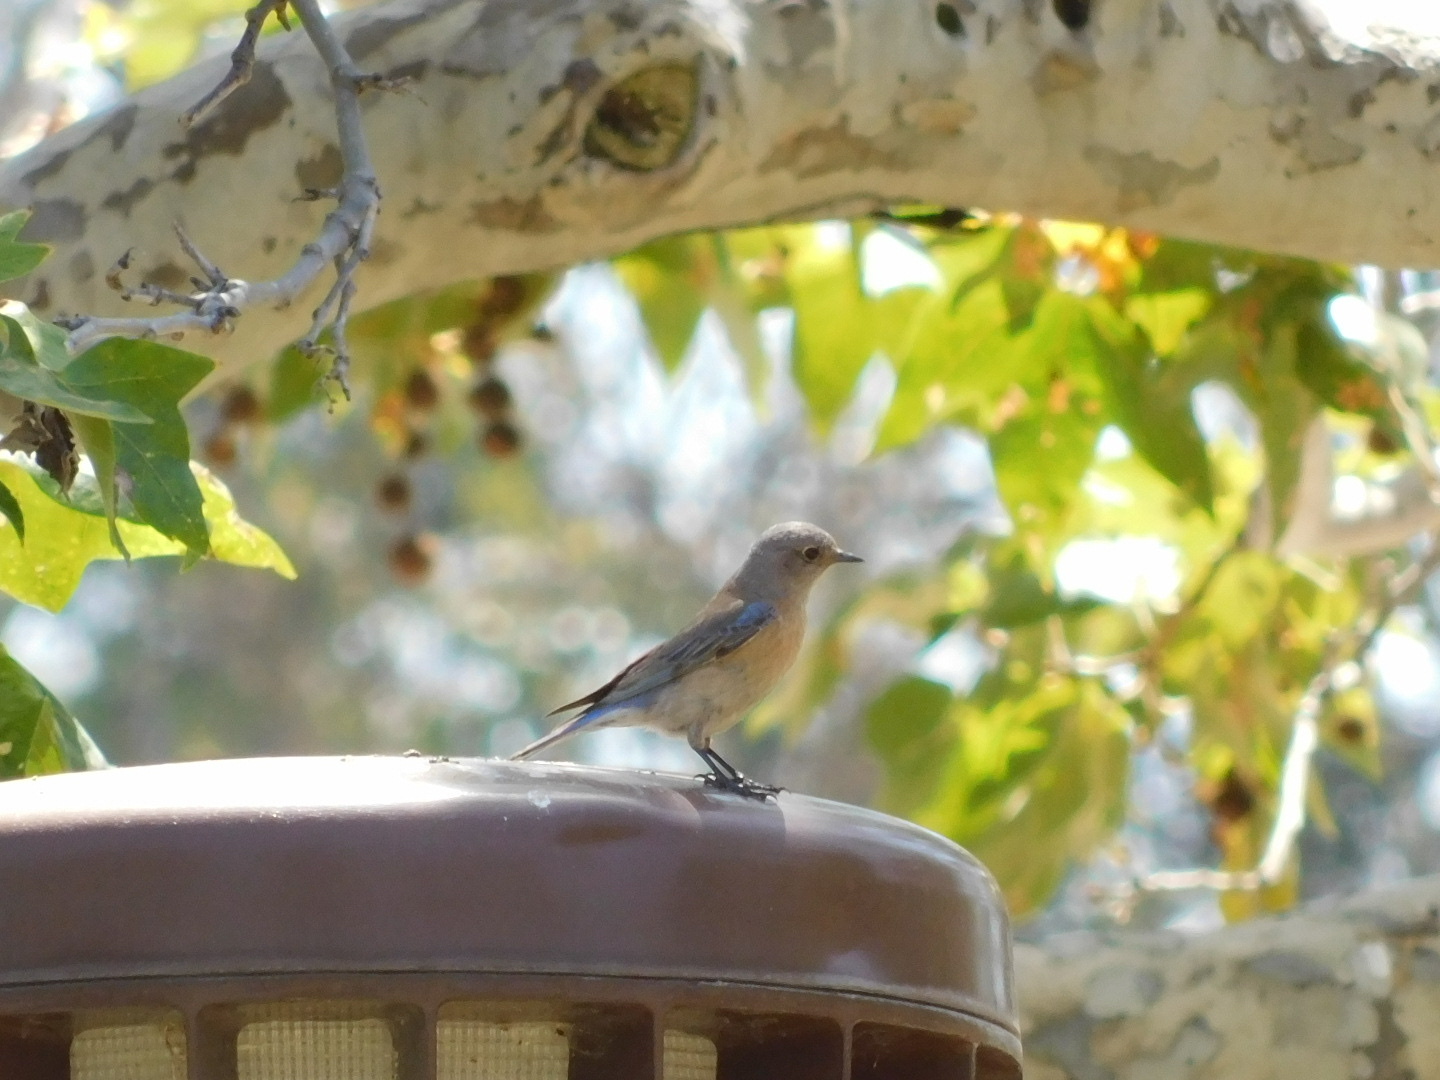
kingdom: Animalia
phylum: Chordata
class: Aves
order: Passeriformes
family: Turdidae
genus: Sialia
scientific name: Sialia mexicana
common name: Western bluebird
